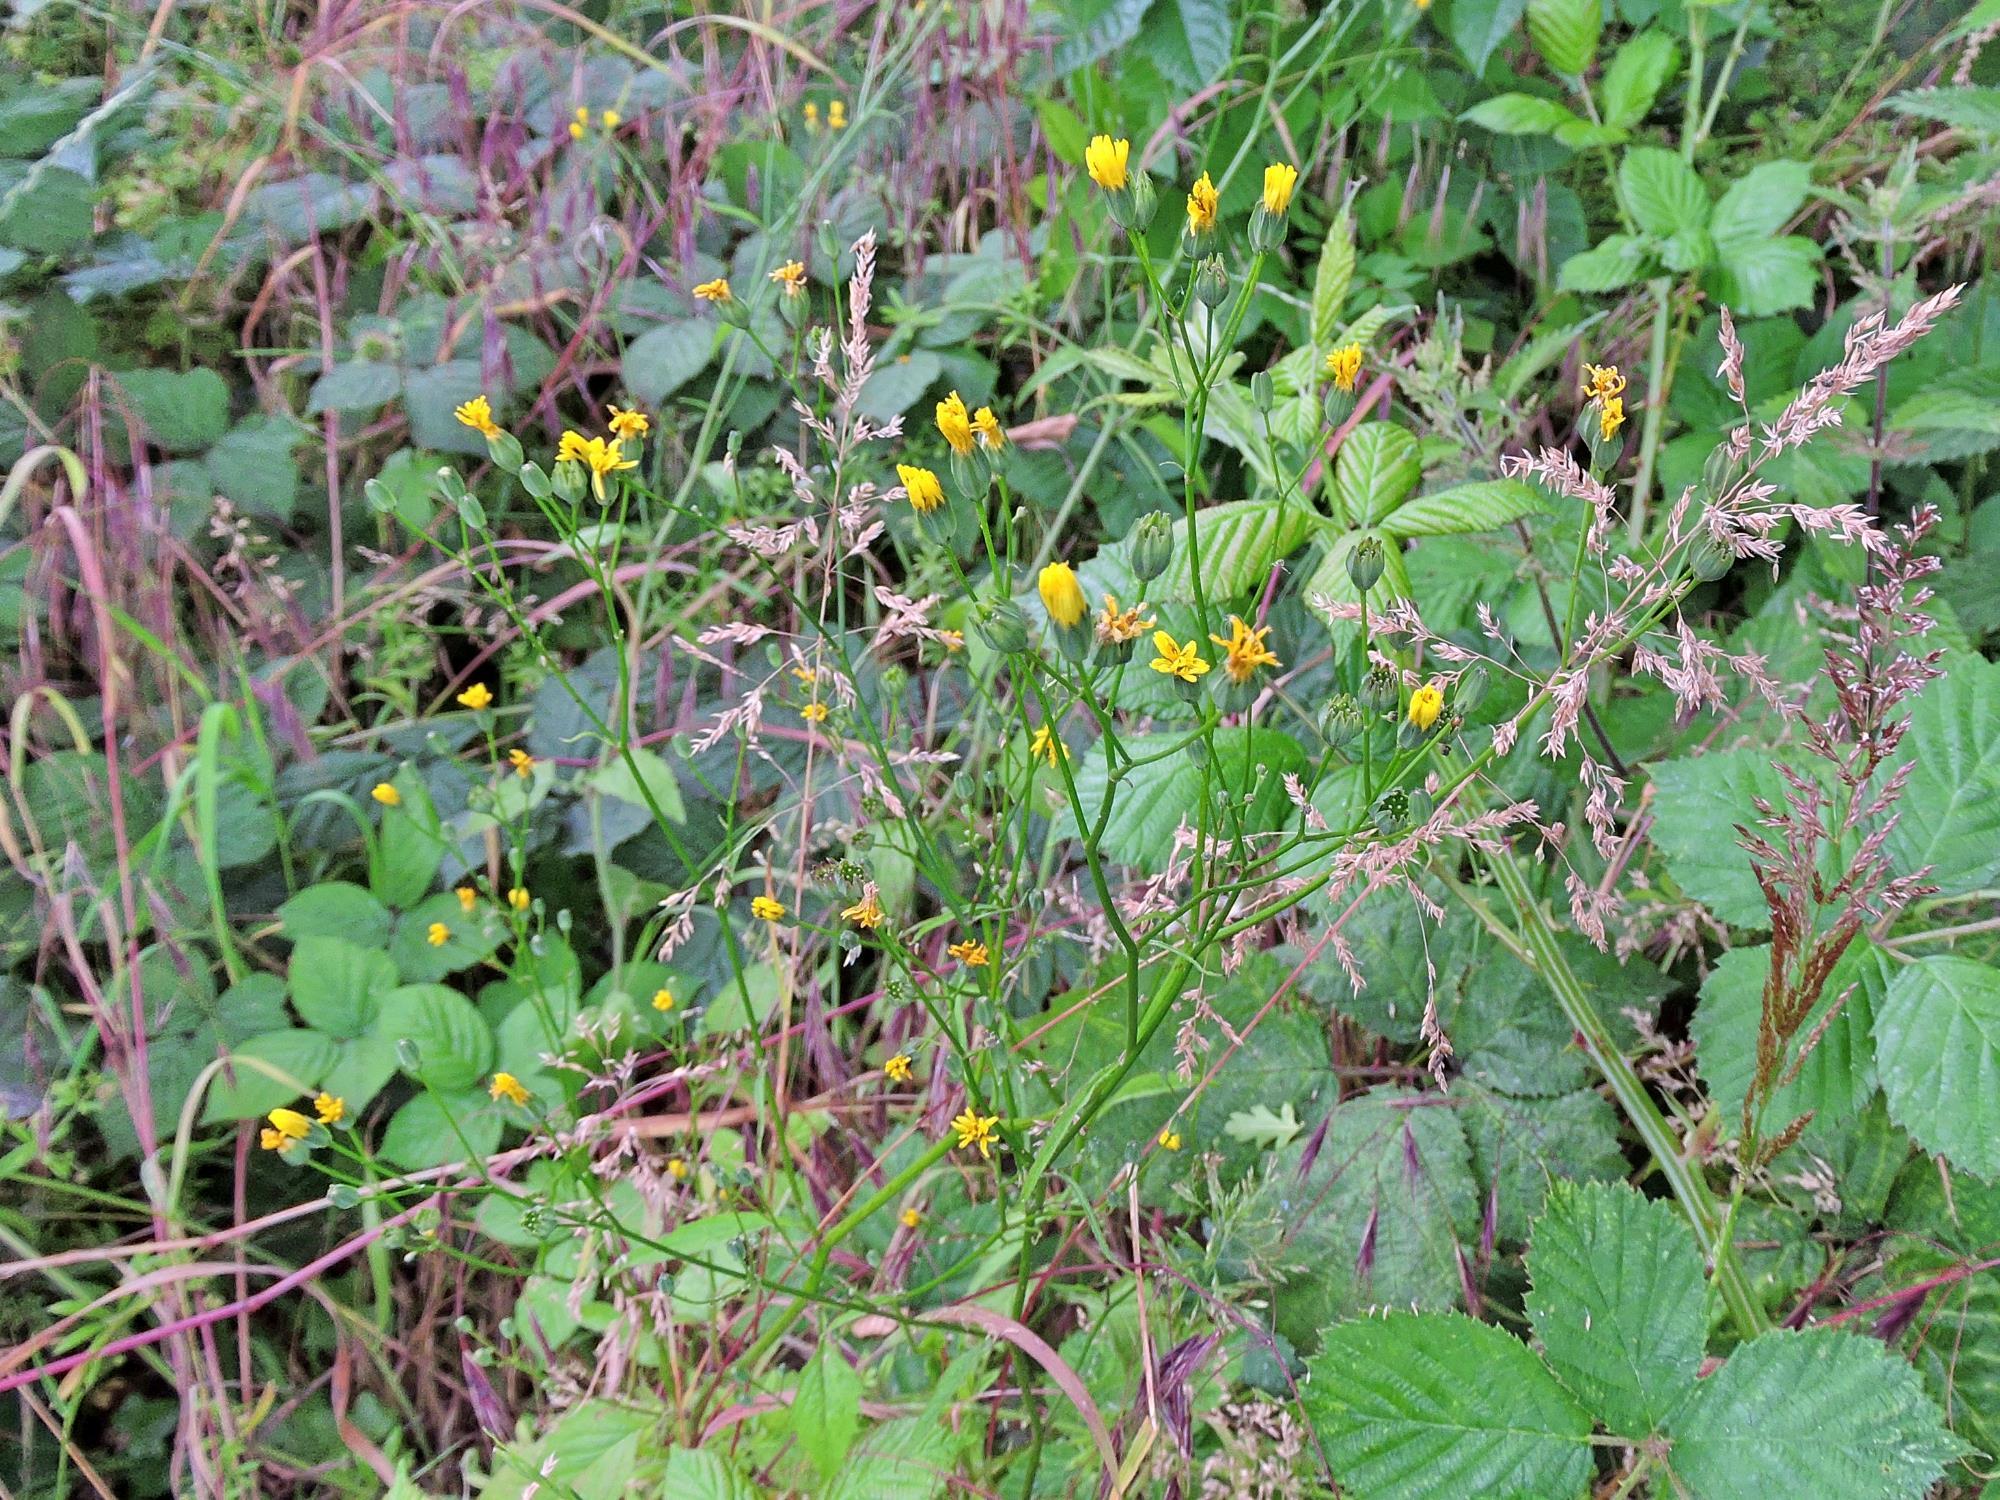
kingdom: Plantae
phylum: Tracheophyta
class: Magnoliopsida
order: Asterales
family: Asteraceae
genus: Lapsana
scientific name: Lapsana communis
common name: Nipplewort
